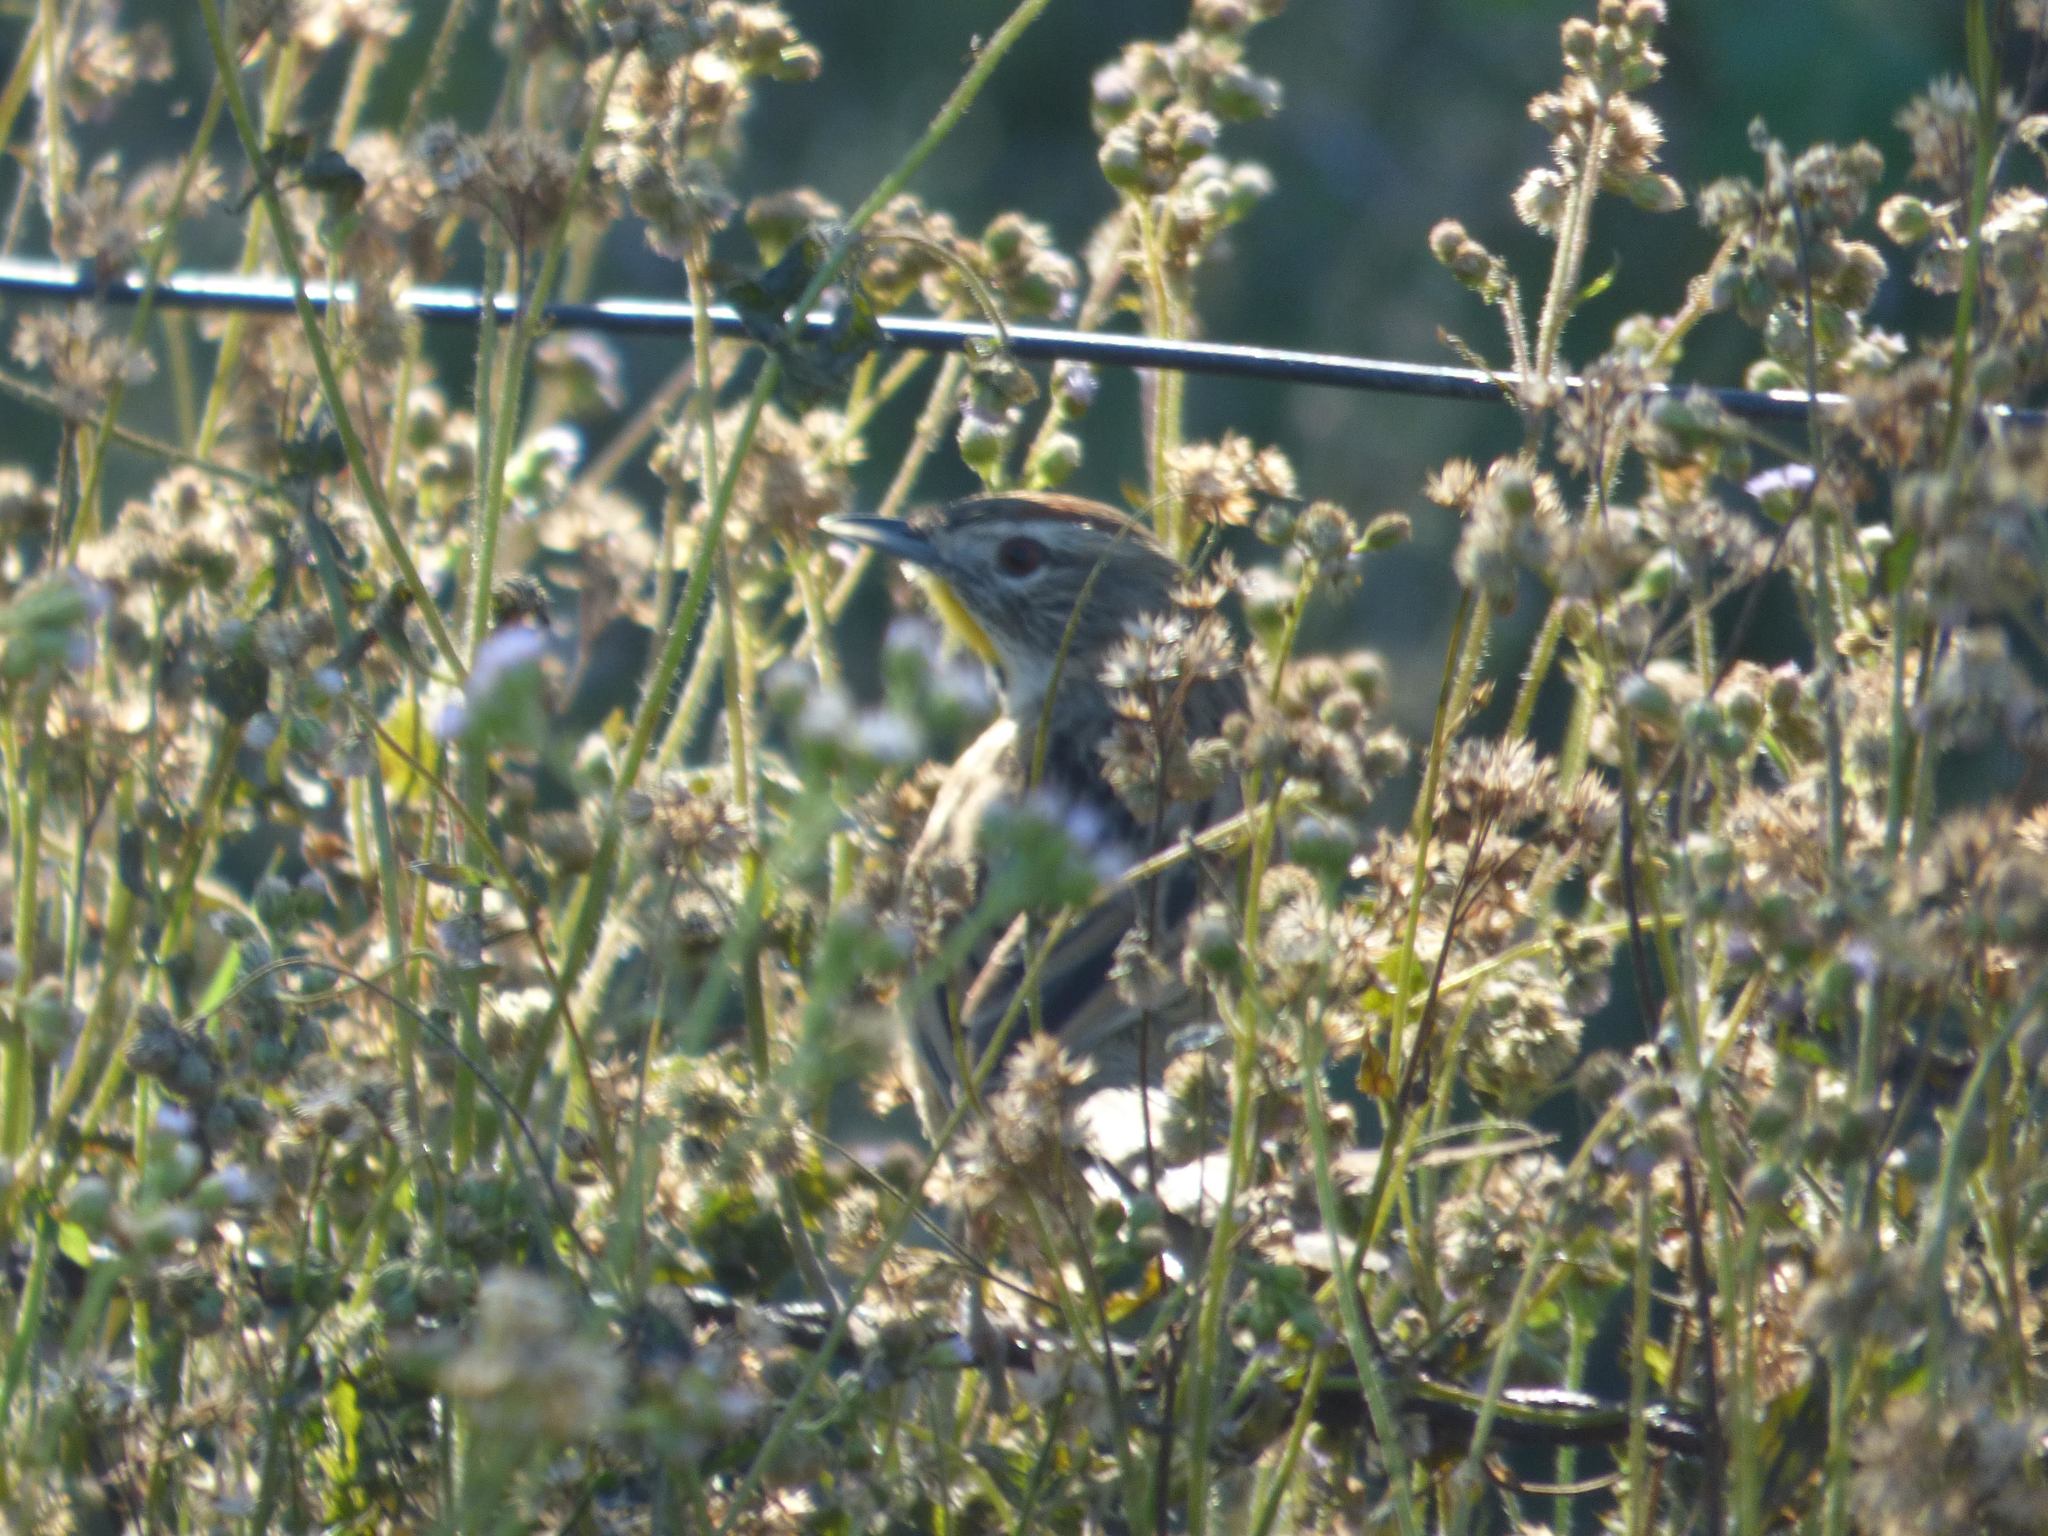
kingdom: Animalia
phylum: Chordata
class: Aves
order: Passeriformes
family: Furnariidae
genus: Schoeniophylax
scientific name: Schoeniophylax phryganophilus
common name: Chotoy spinetail
